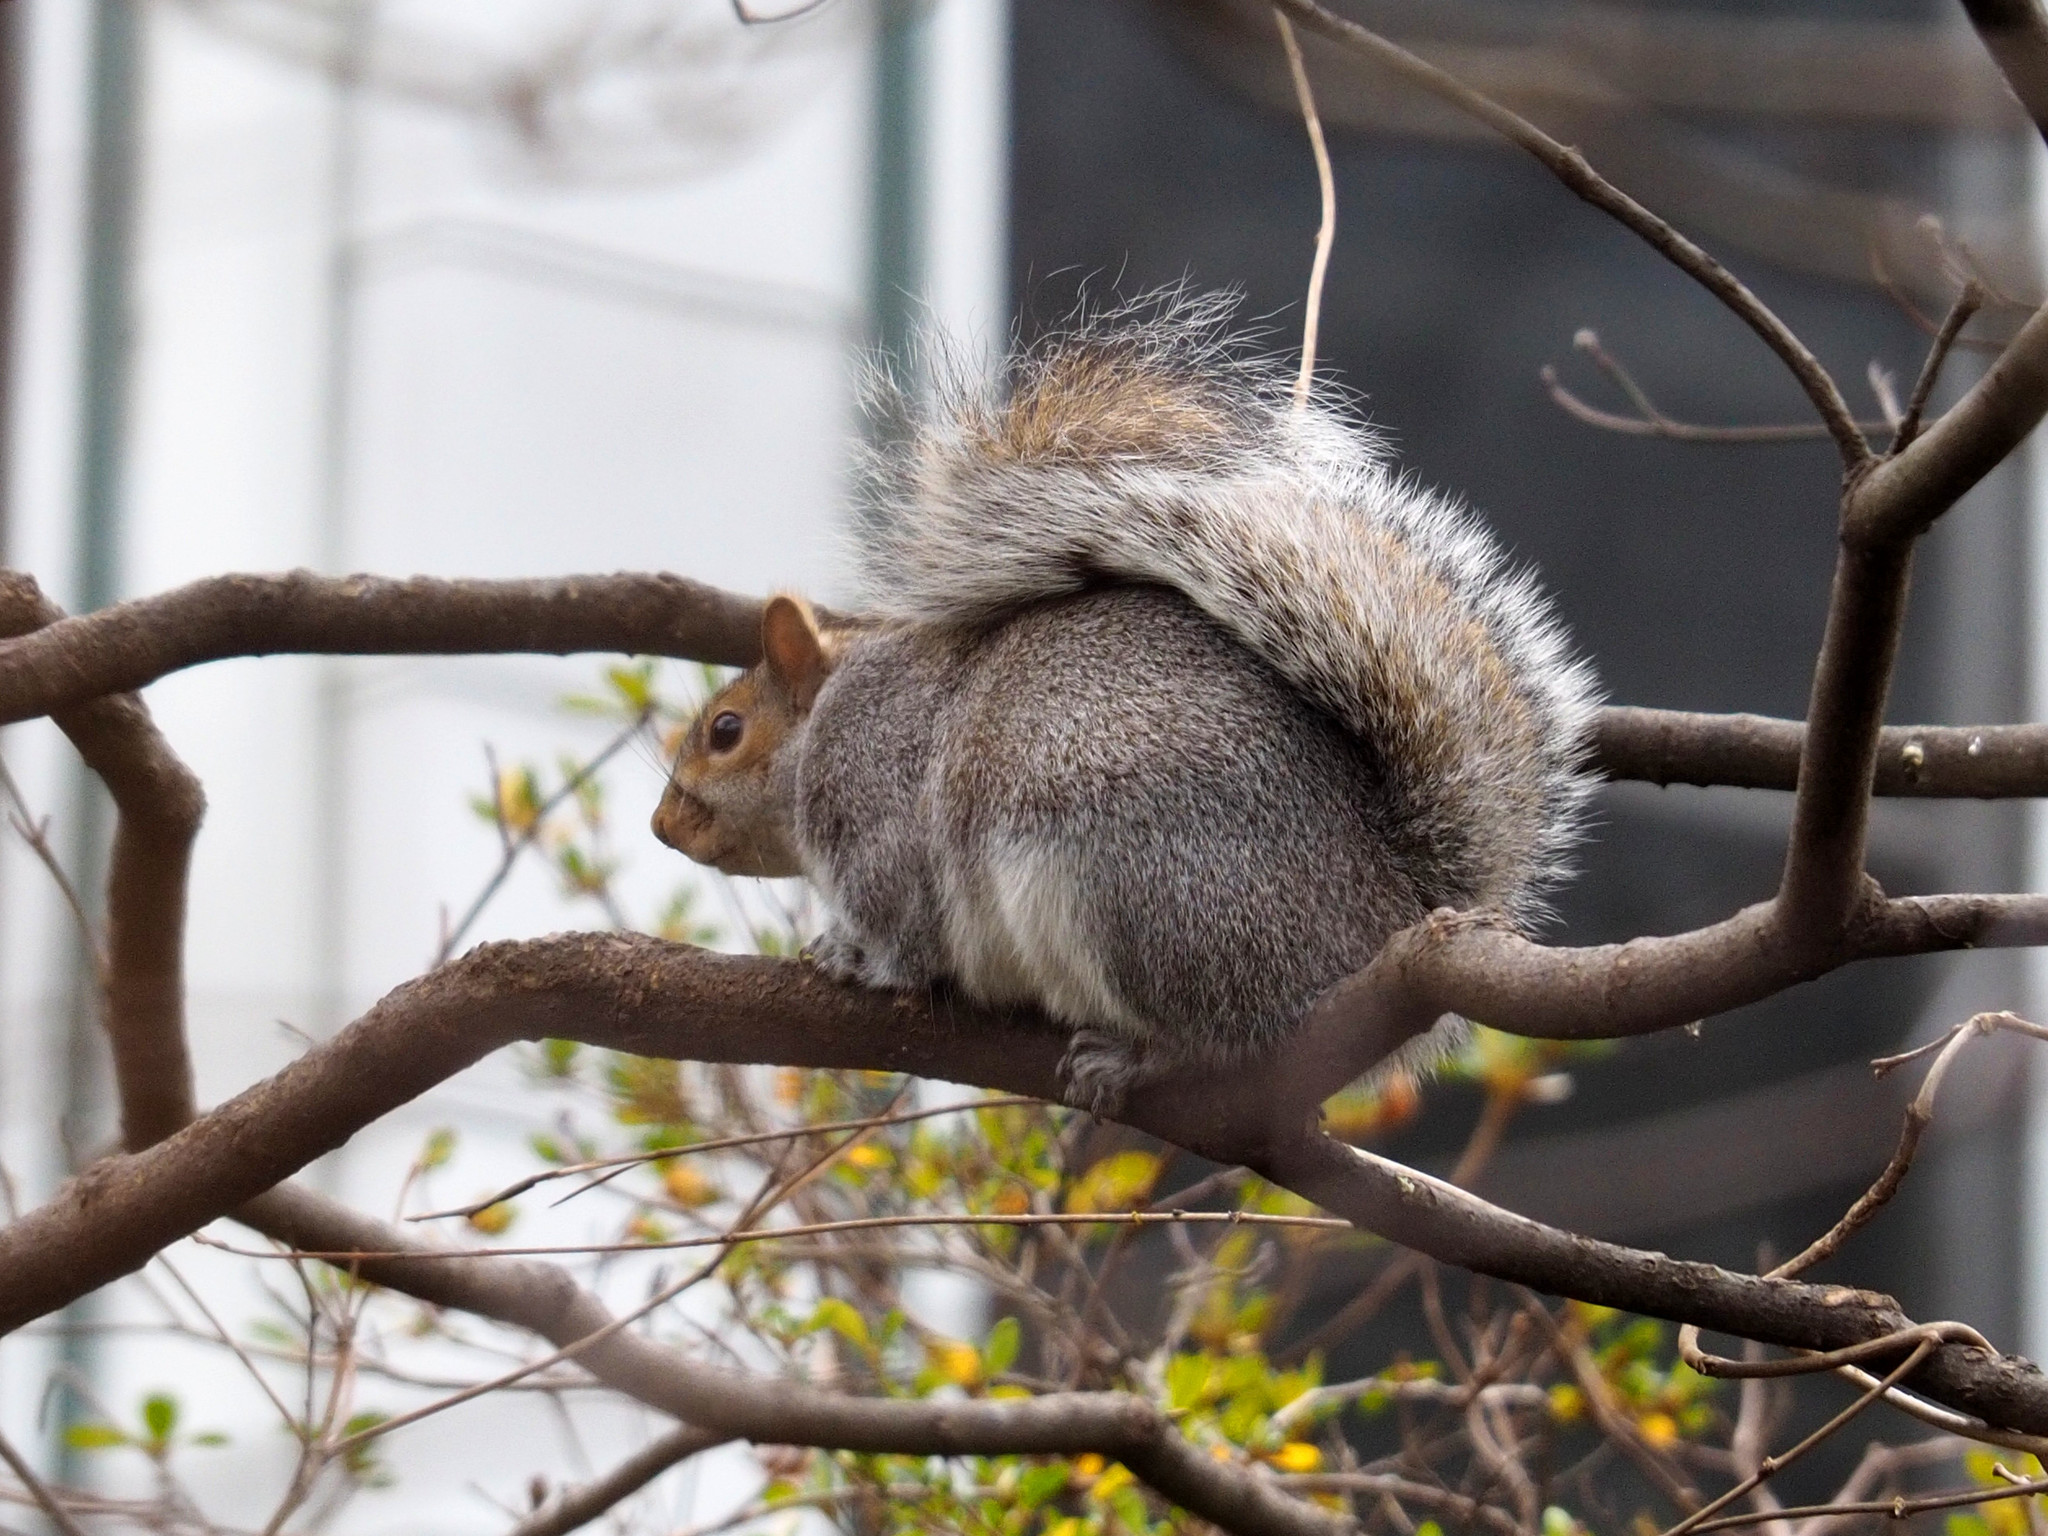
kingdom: Animalia
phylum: Chordata
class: Mammalia
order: Rodentia
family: Sciuridae
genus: Sciurus
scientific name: Sciurus carolinensis
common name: Eastern gray squirrel
